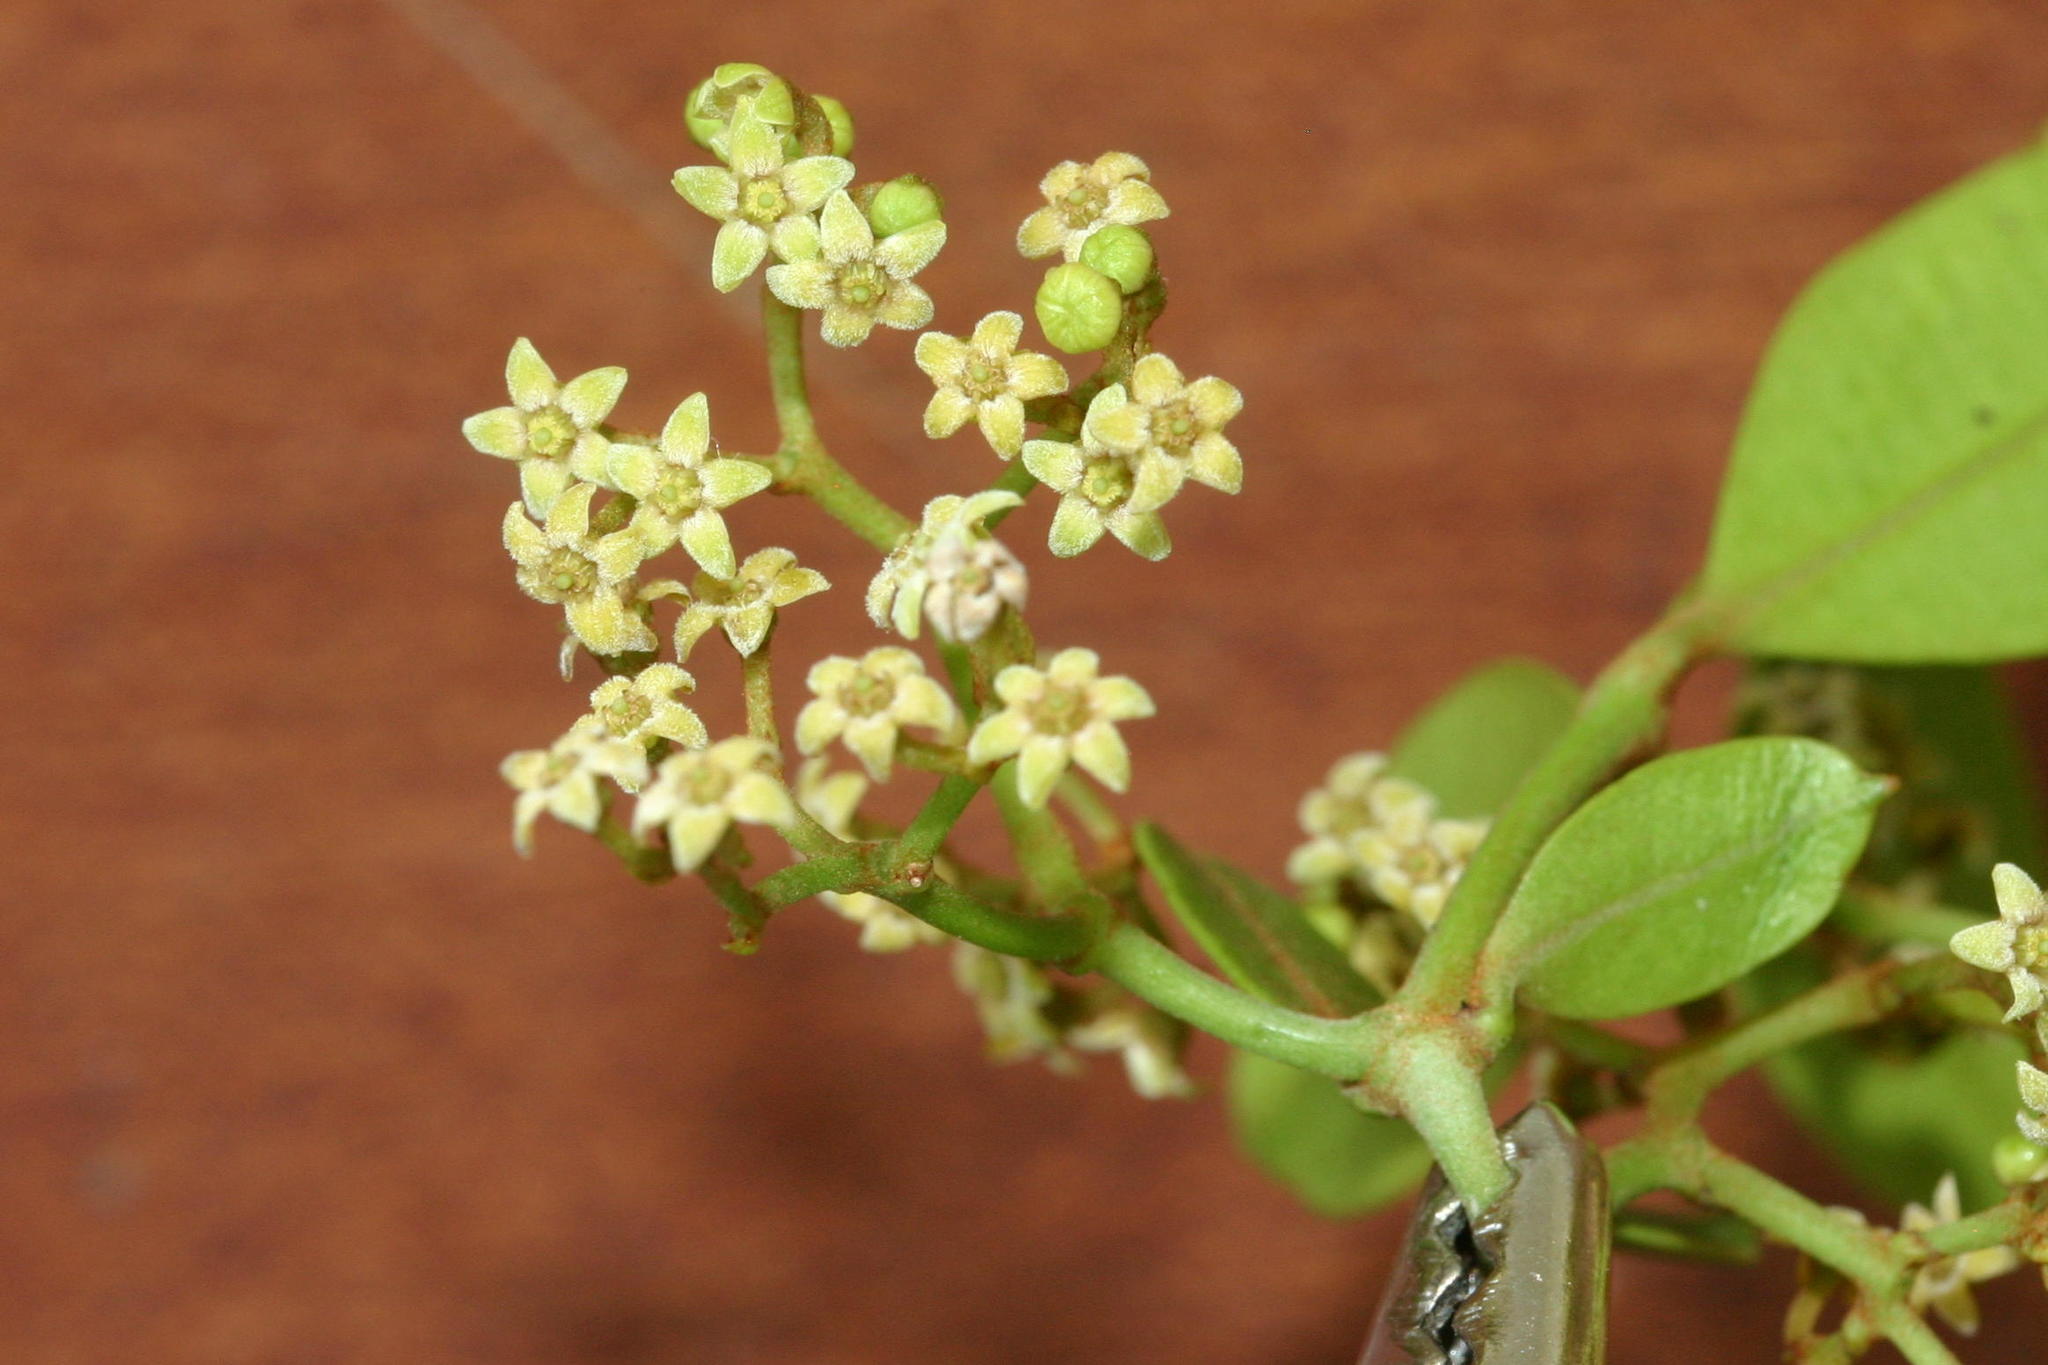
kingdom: Plantae
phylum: Tracheophyta
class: Magnoliopsida
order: Gentianales
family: Apocynaceae
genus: Secamone
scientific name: Secamone alpini
